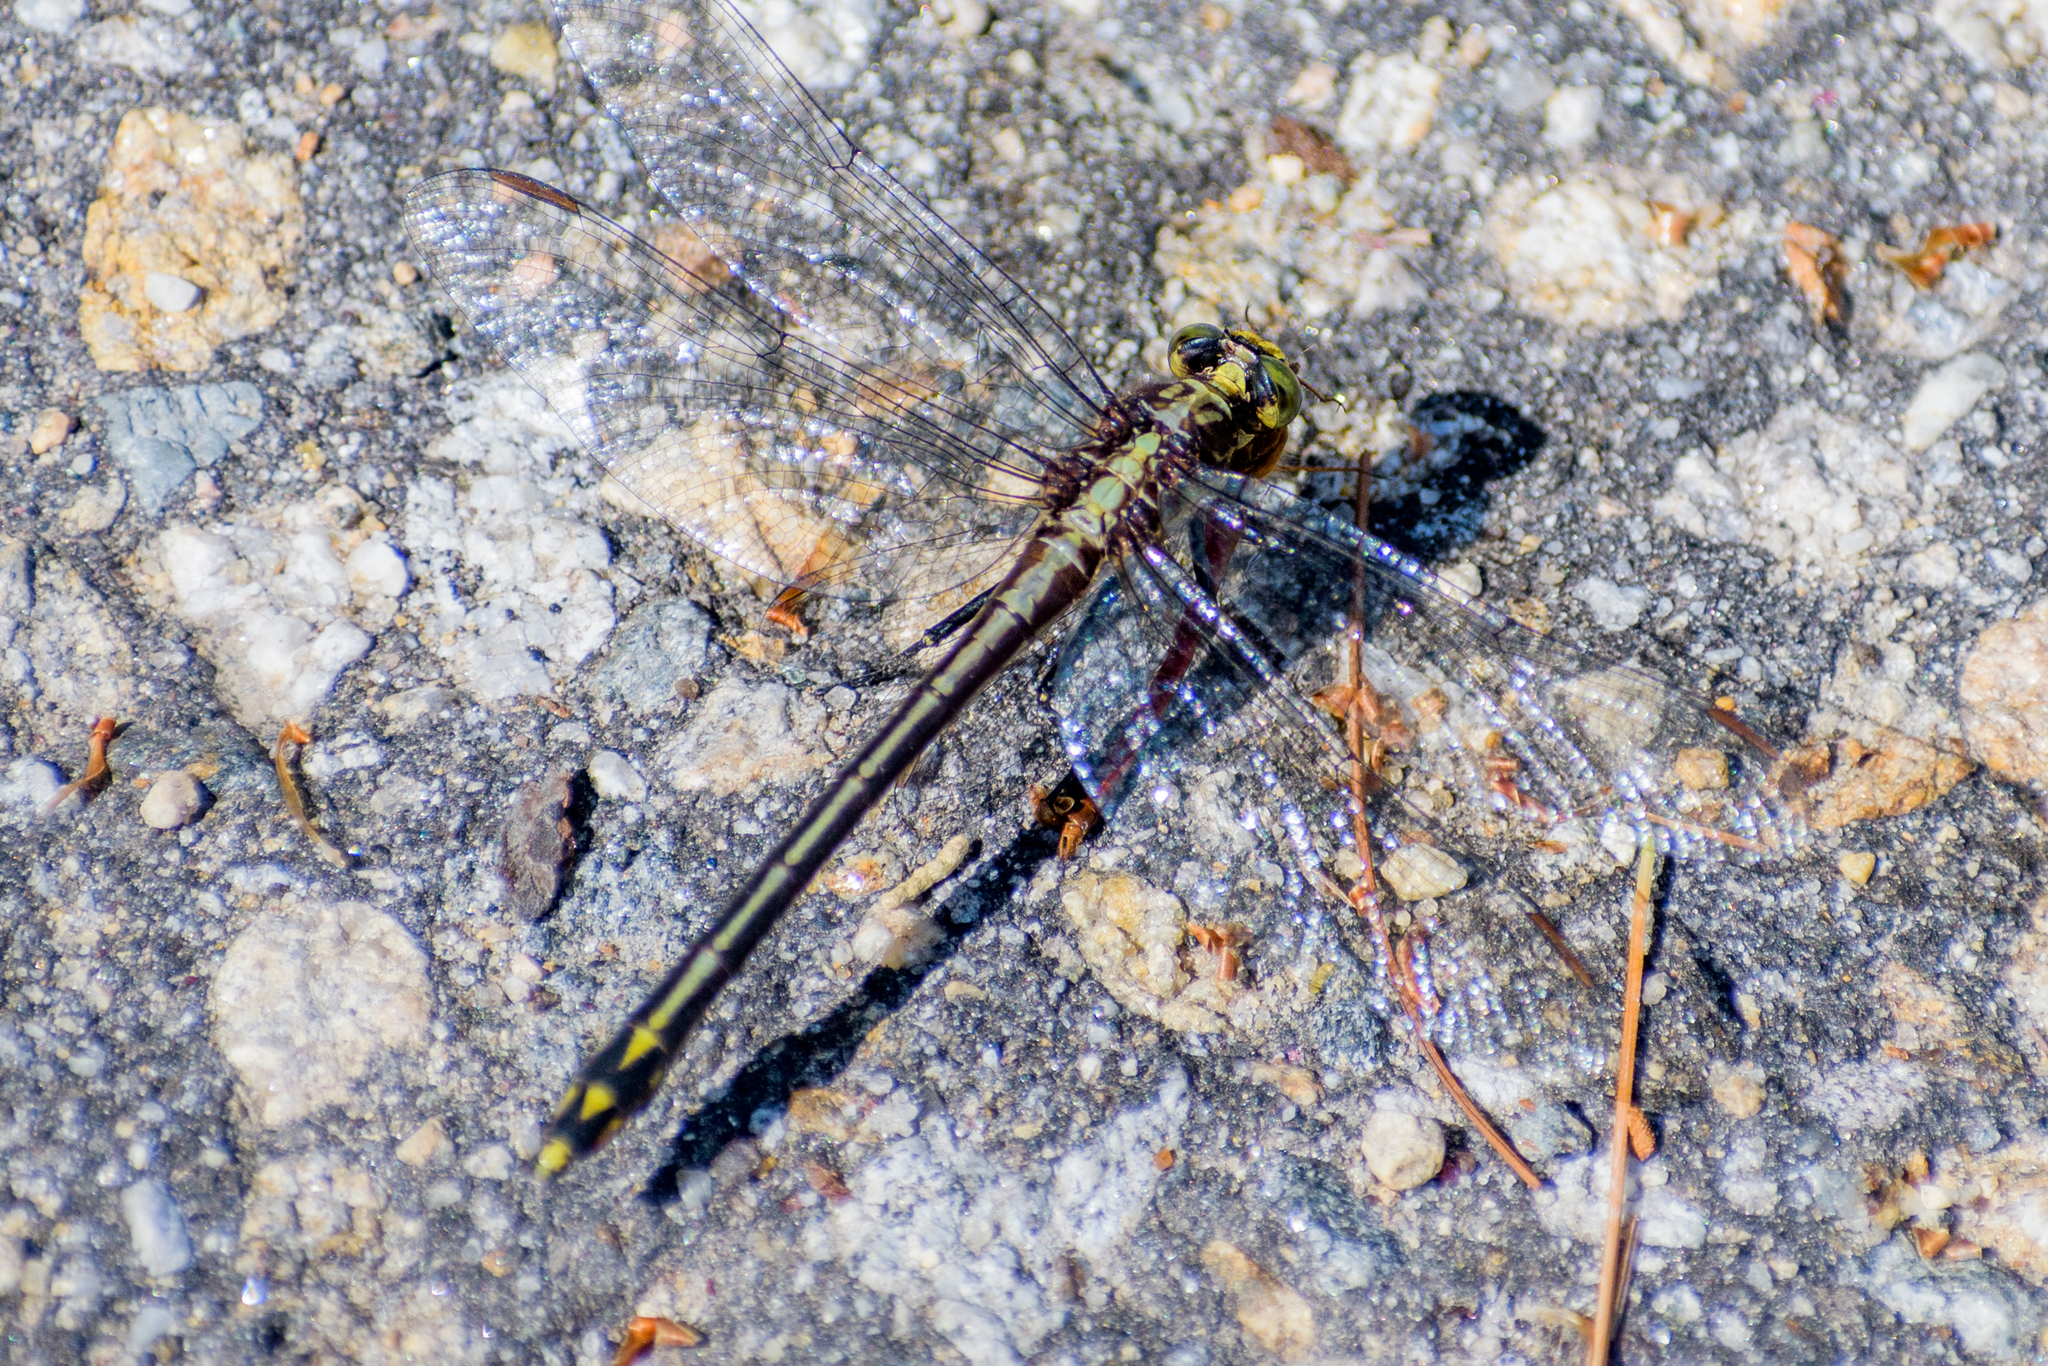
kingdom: Animalia
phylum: Arthropoda
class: Insecta
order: Odonata
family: Gomphidae
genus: Dromogomphus
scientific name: Dromogomphus spinosus
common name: Black-shouldered spinyleg
